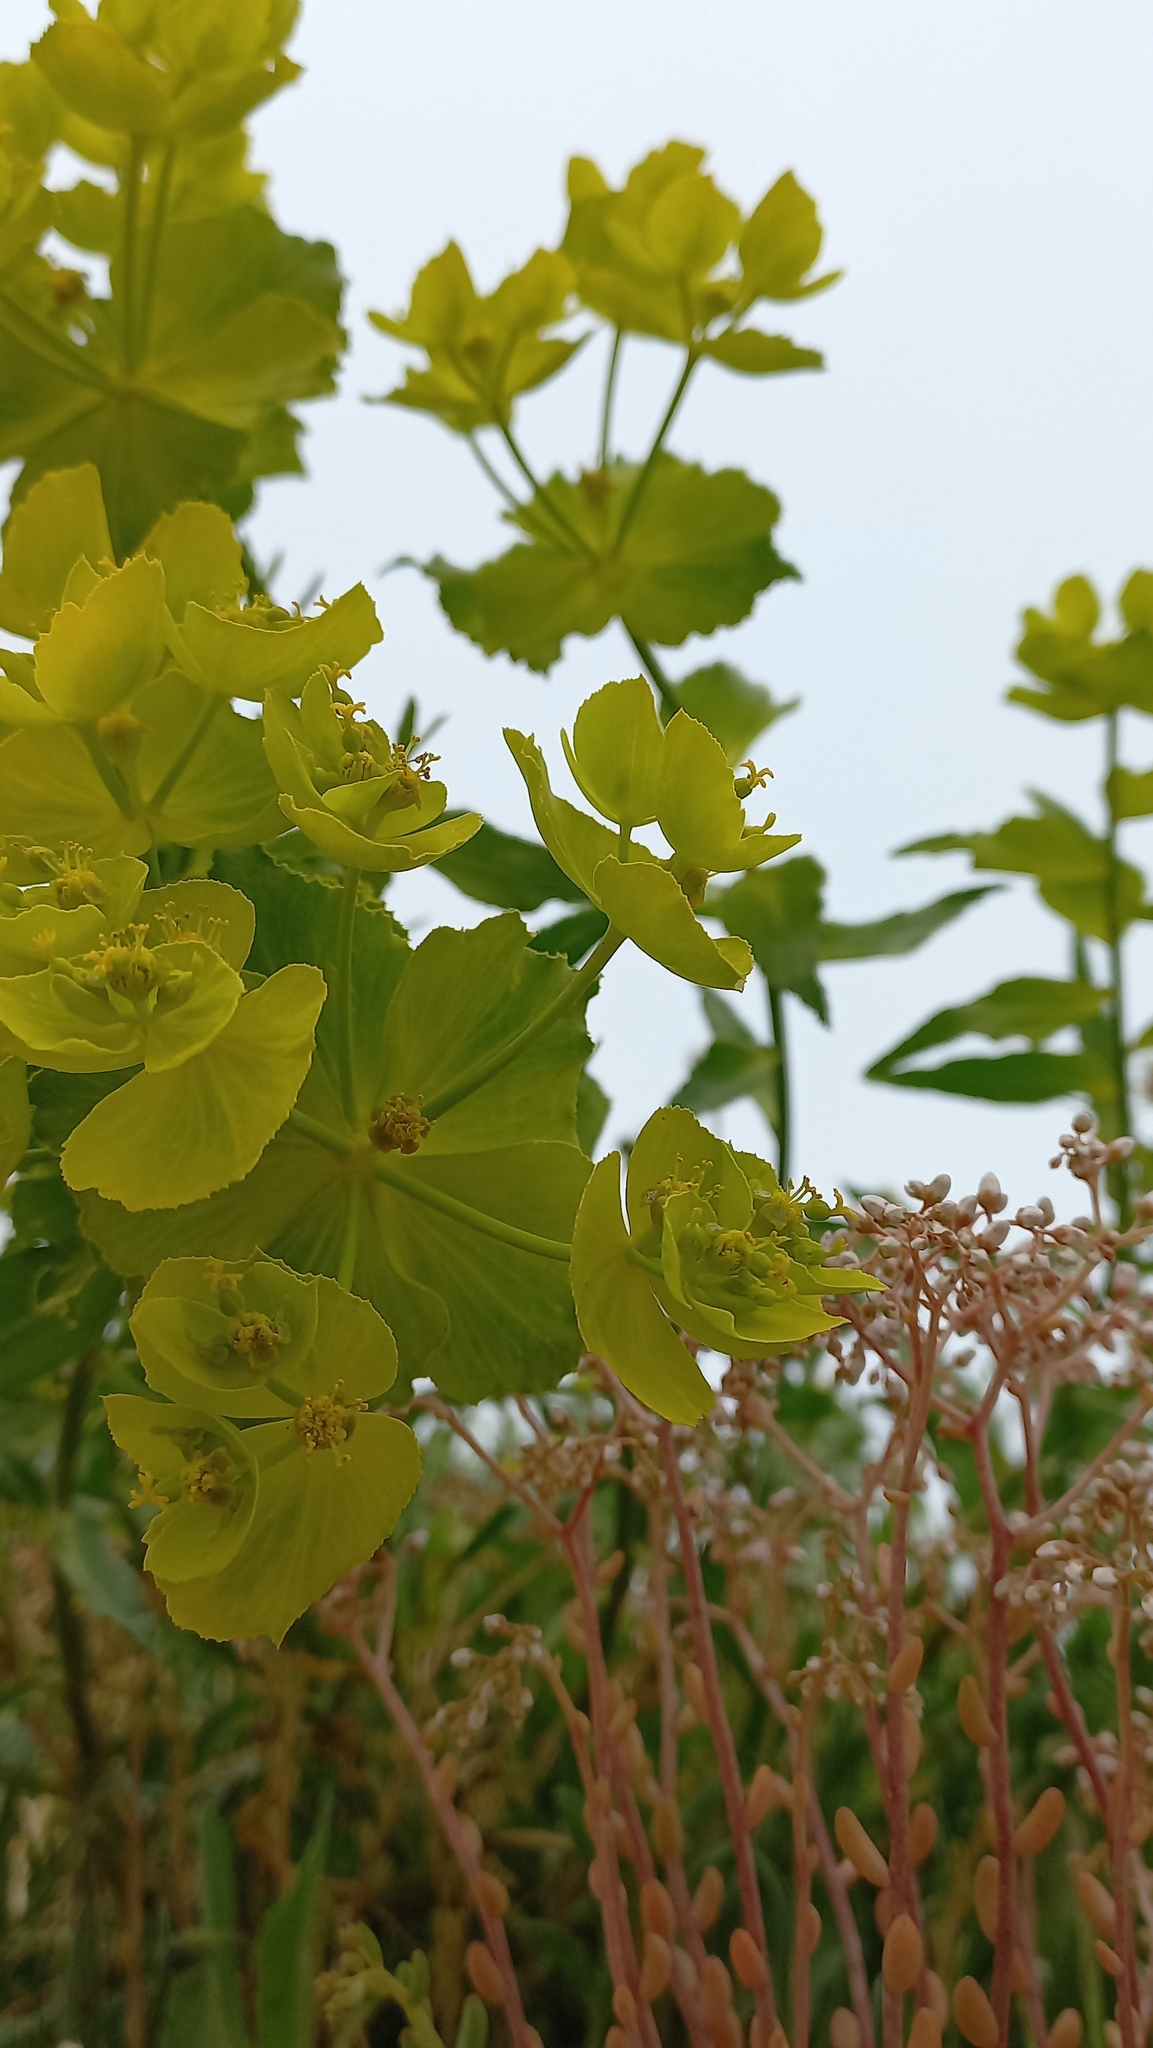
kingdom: Plantae
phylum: Tracheophyta
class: Magnoliopsida
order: Malpighiales
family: Euphorbiaceae
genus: Euphorbia
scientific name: Euphorbia serrata
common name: Serrate spurge
